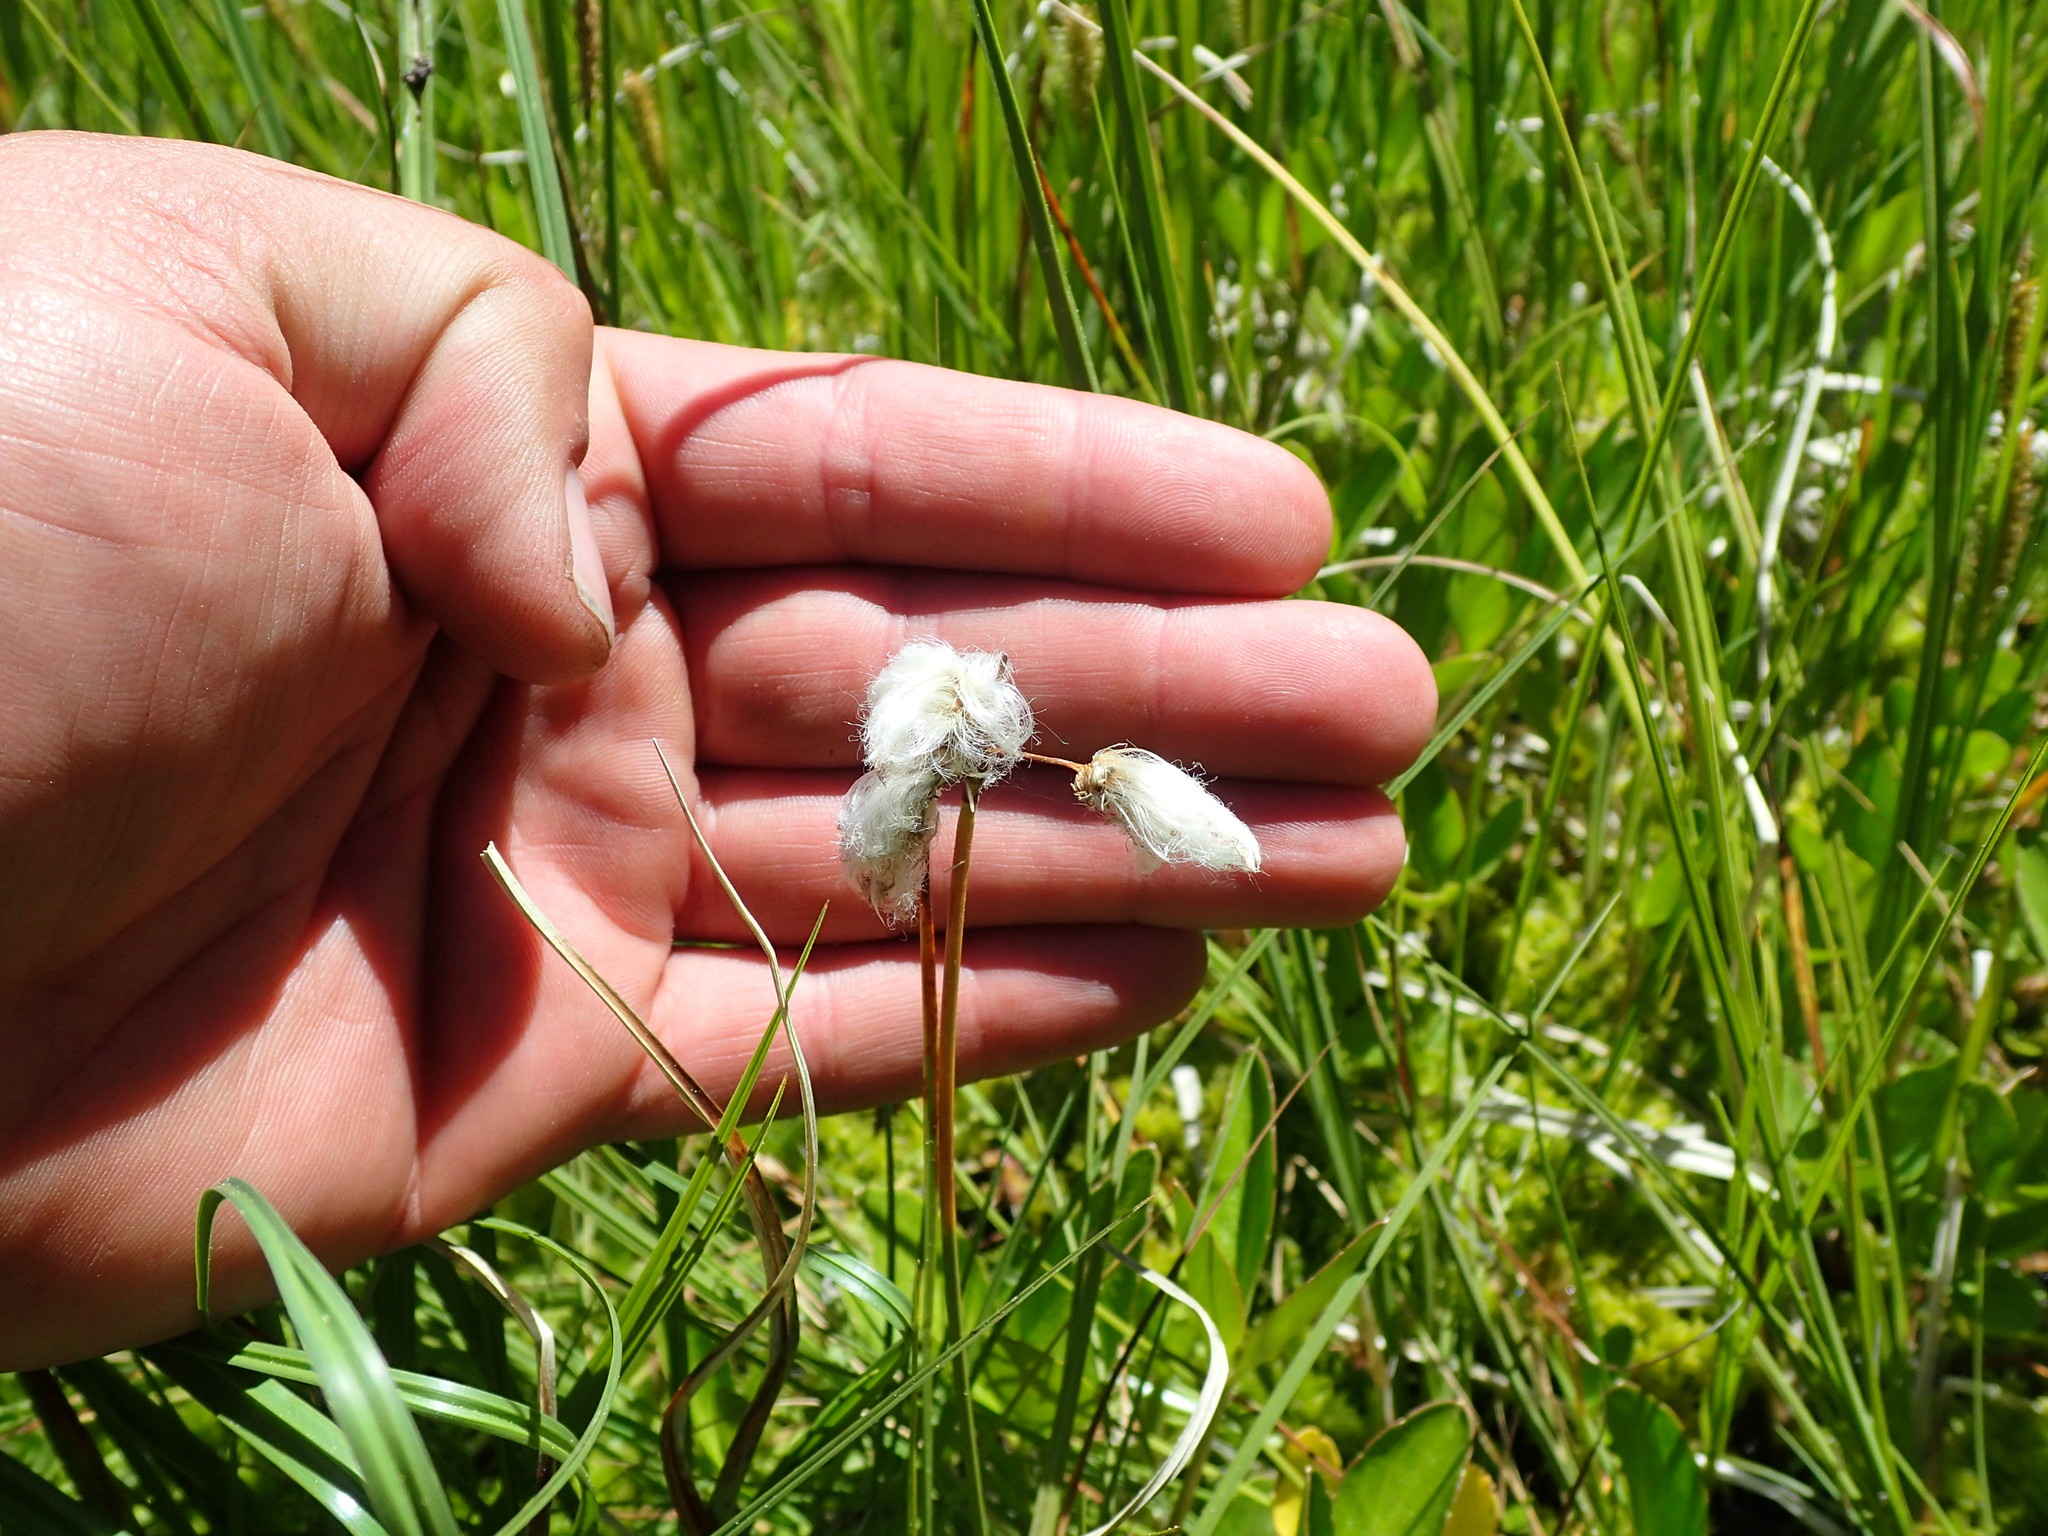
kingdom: Plantae
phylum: Tracheophyta
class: Liliopsida
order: Poales
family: Cyperaceae
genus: Eriophorum
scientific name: Eriophorum gracile
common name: Slender cottongrass
